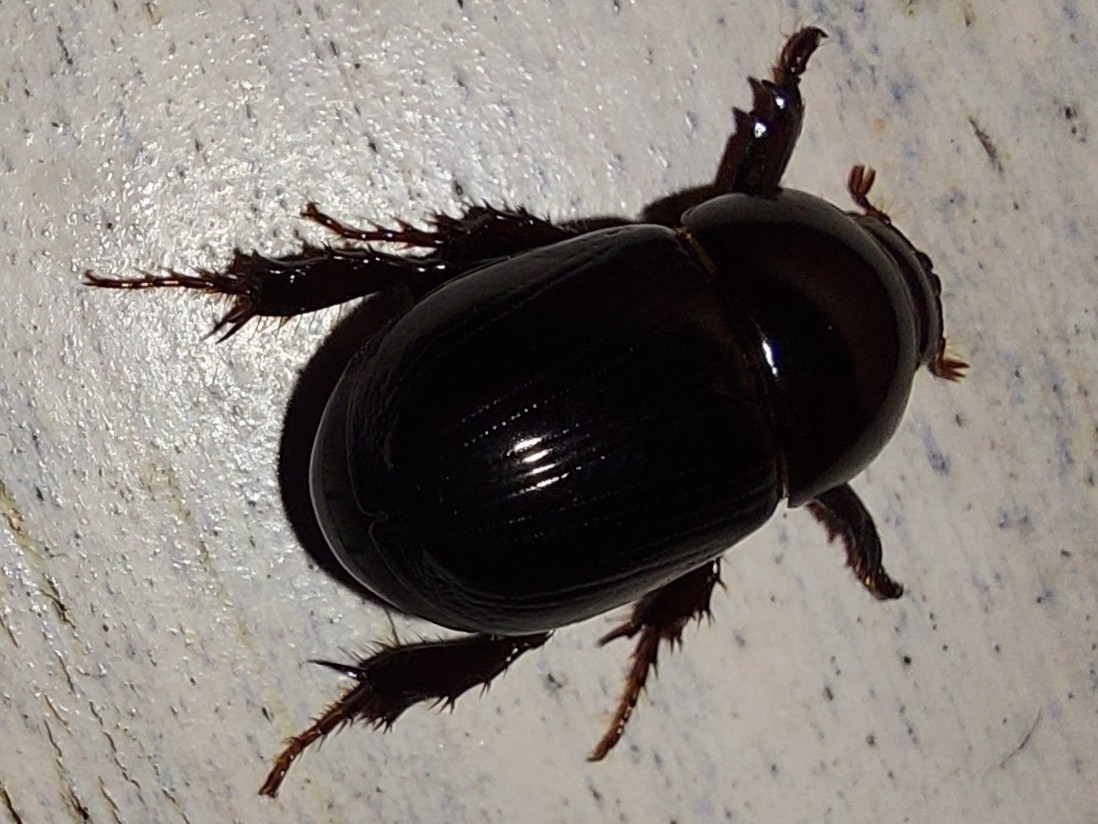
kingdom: Animalia
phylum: Arthropoda
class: Insecta
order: Coleoptera
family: Scarabaeidae
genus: Heteronychus
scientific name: Heteronychus arator
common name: African black beetle
